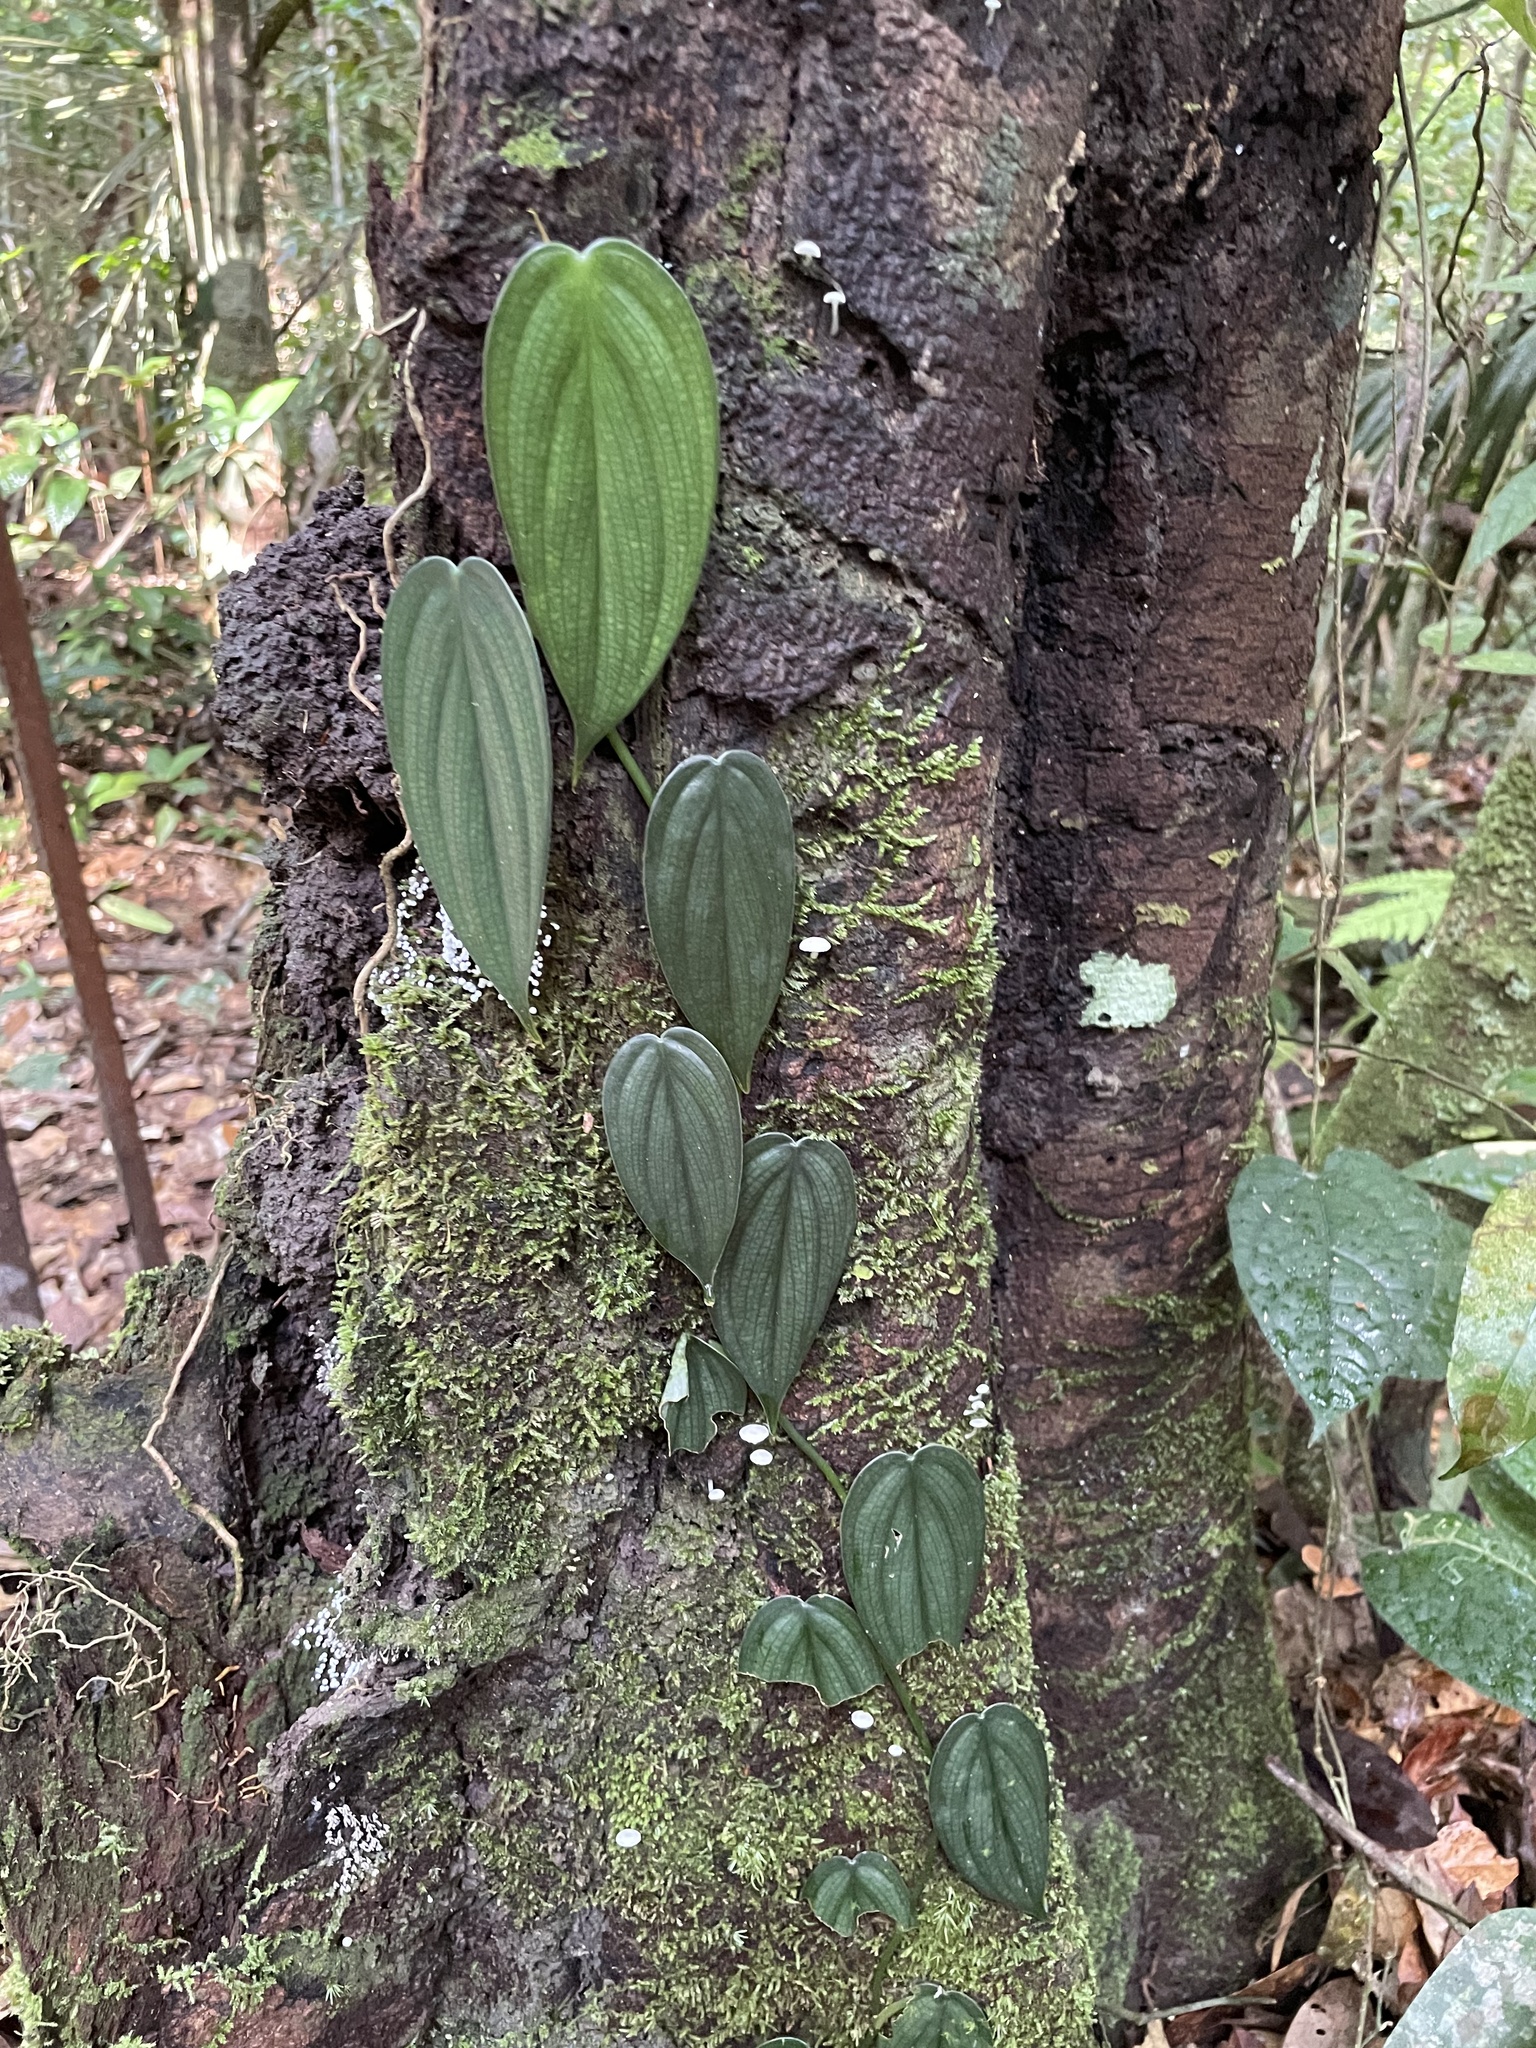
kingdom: Plantae
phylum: Tracheophyta
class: Liliopsida
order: Alismatales
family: Araceae
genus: Philodendron
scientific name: Philodendron hopkinsianum
